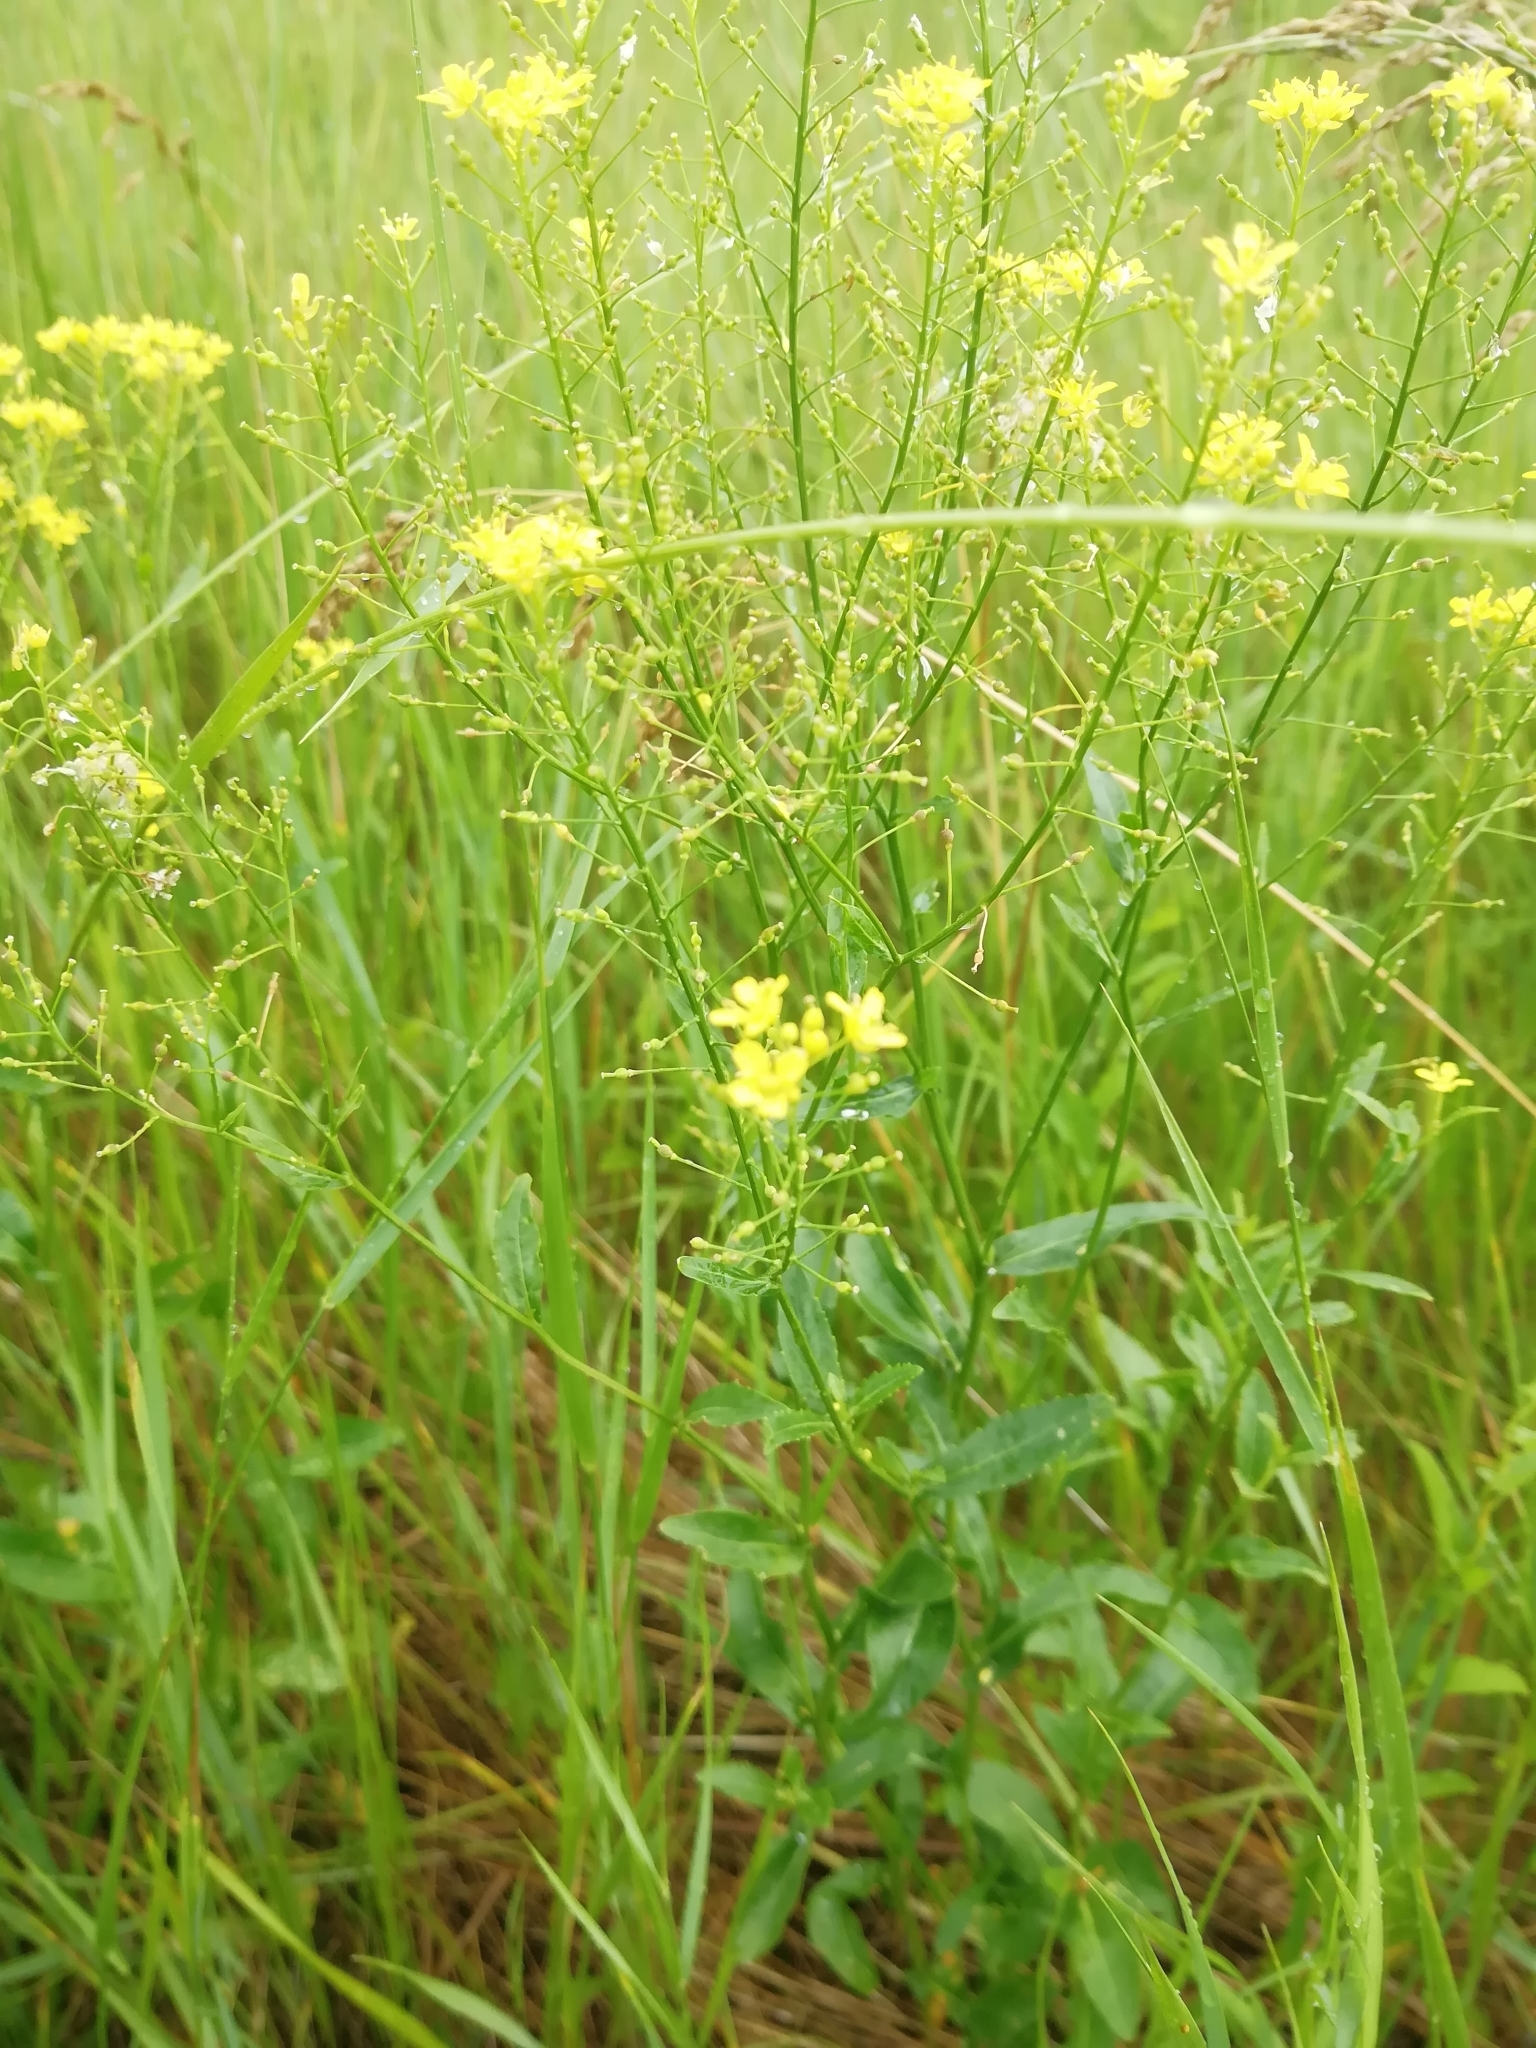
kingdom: Plantae
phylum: Tracheophyta
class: Magnoliopsida
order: Brassicales
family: Brassicaceae
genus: Rorippa
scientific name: Rorippa austriaca
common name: Austrian yellow-cress
